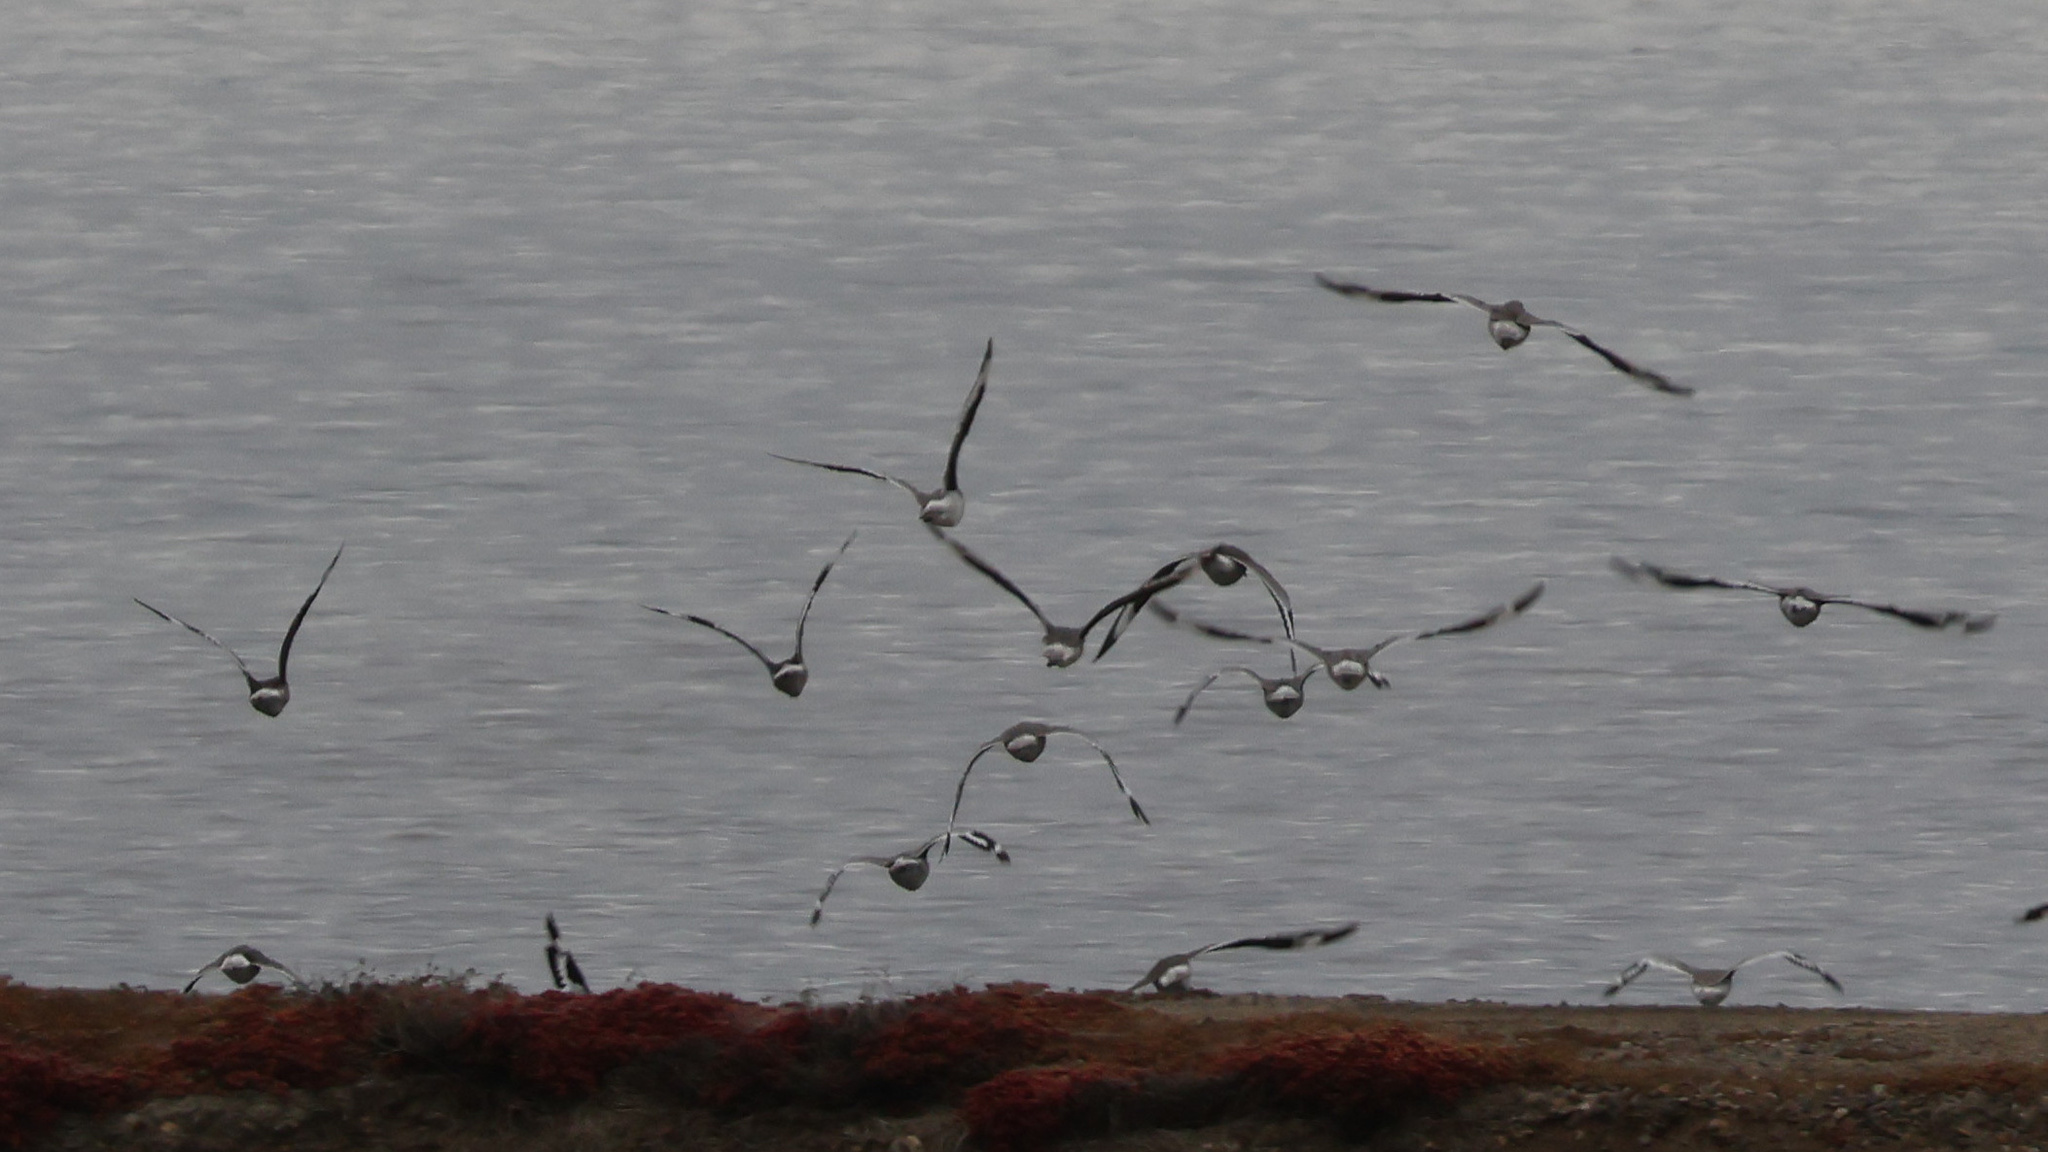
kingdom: Animalia
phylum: Chordata
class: Aves
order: Charadriiformes
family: Scolopacidae
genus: Tringa
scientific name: Tringa semipalmata
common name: Willet
